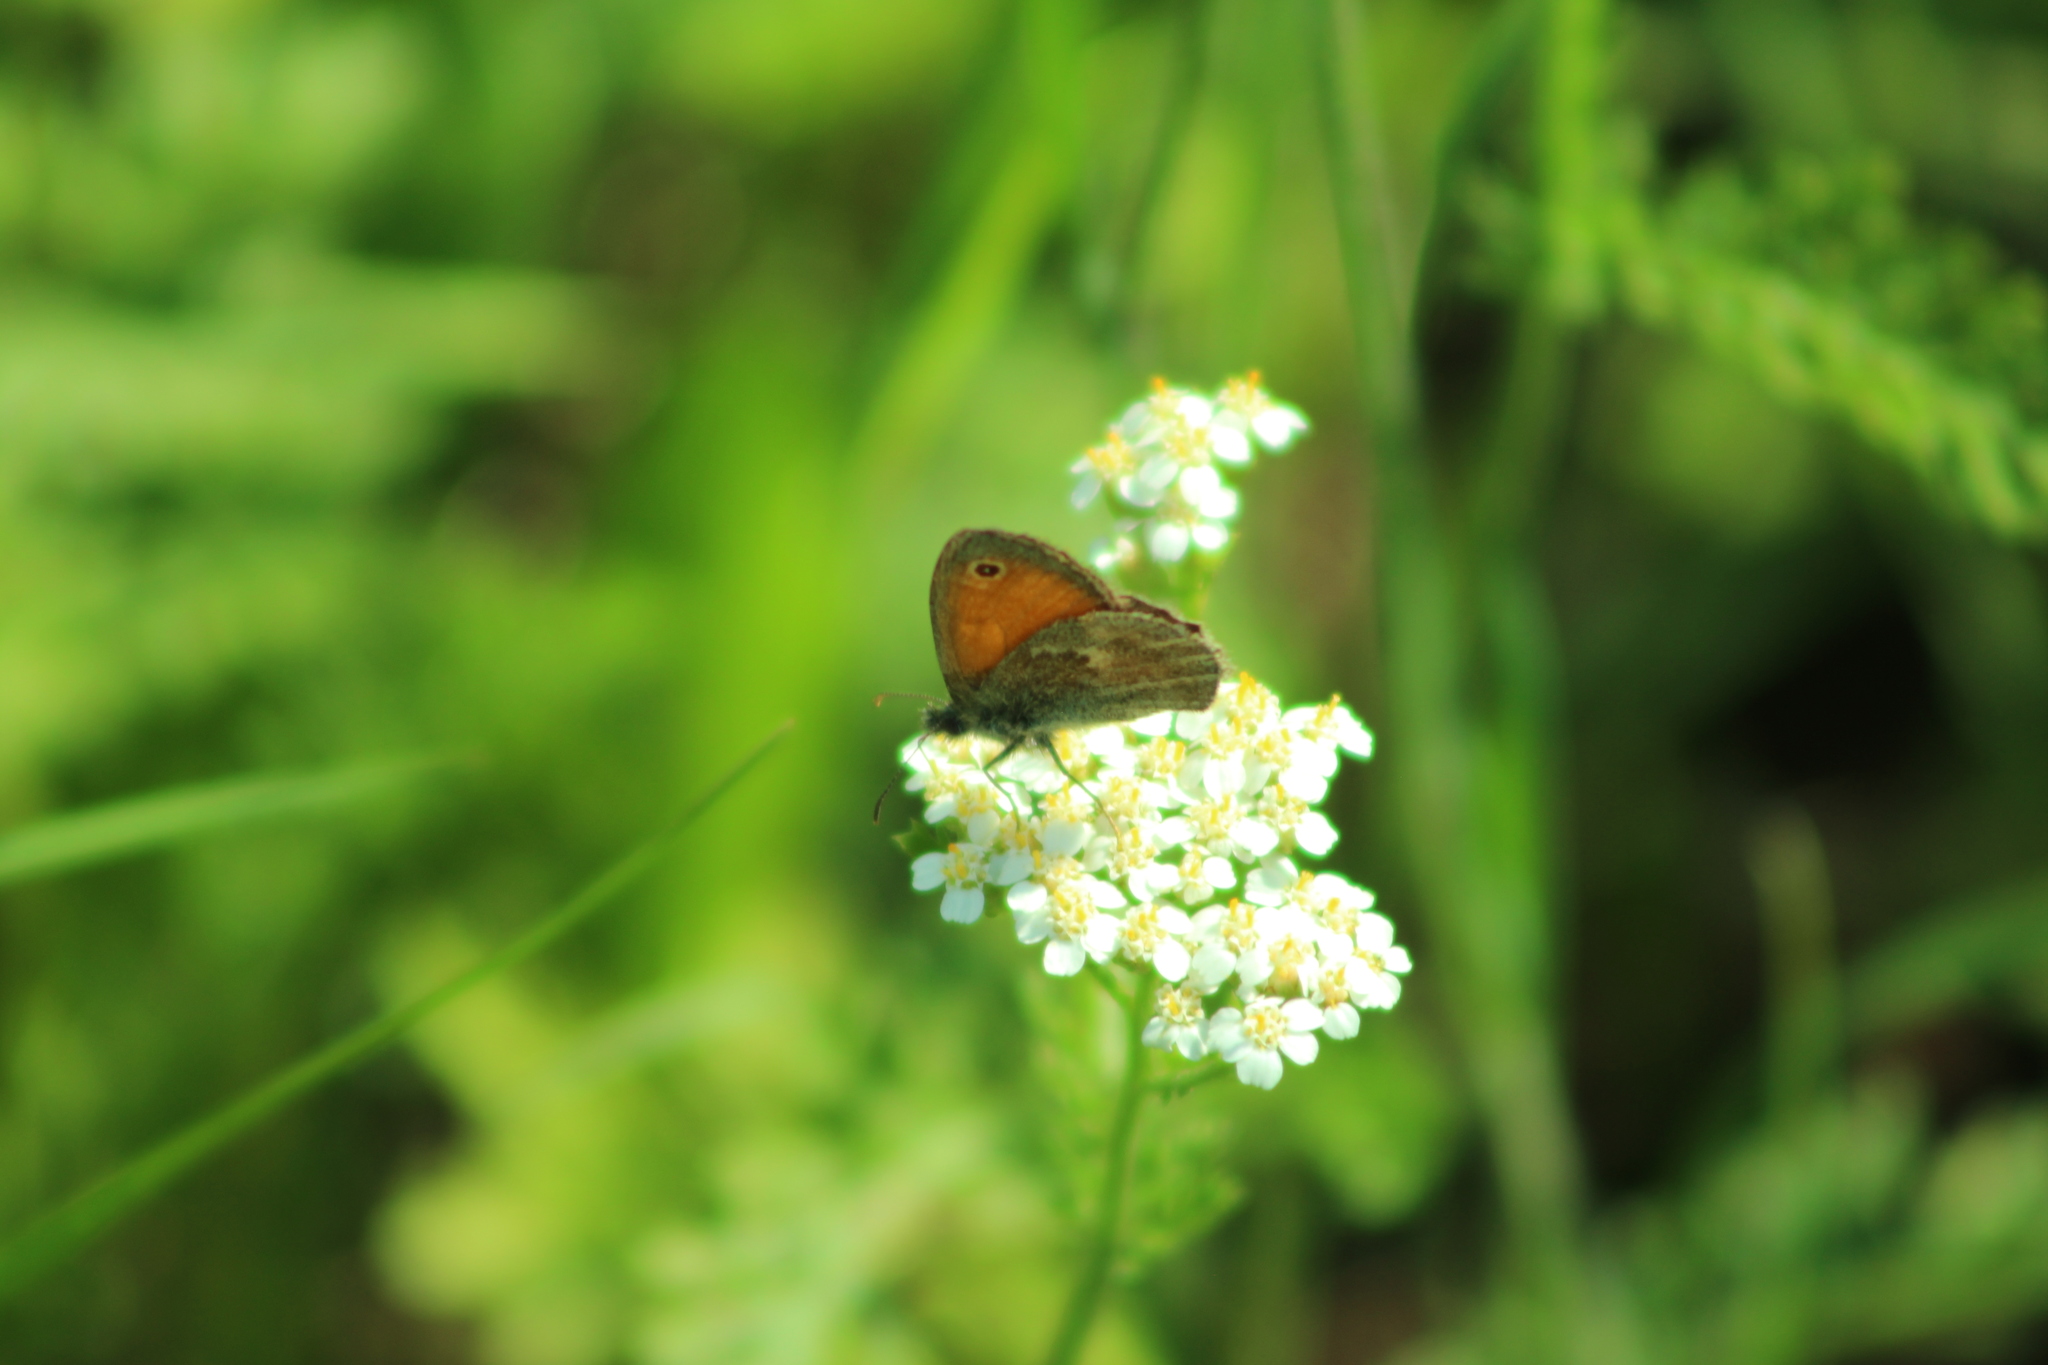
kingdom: Animalia
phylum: Arthropoda
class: Insecta
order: Lepidoptera
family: Nymphalidae
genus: Coenonympha
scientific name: Coenonympha pamphilus
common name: Small heath
